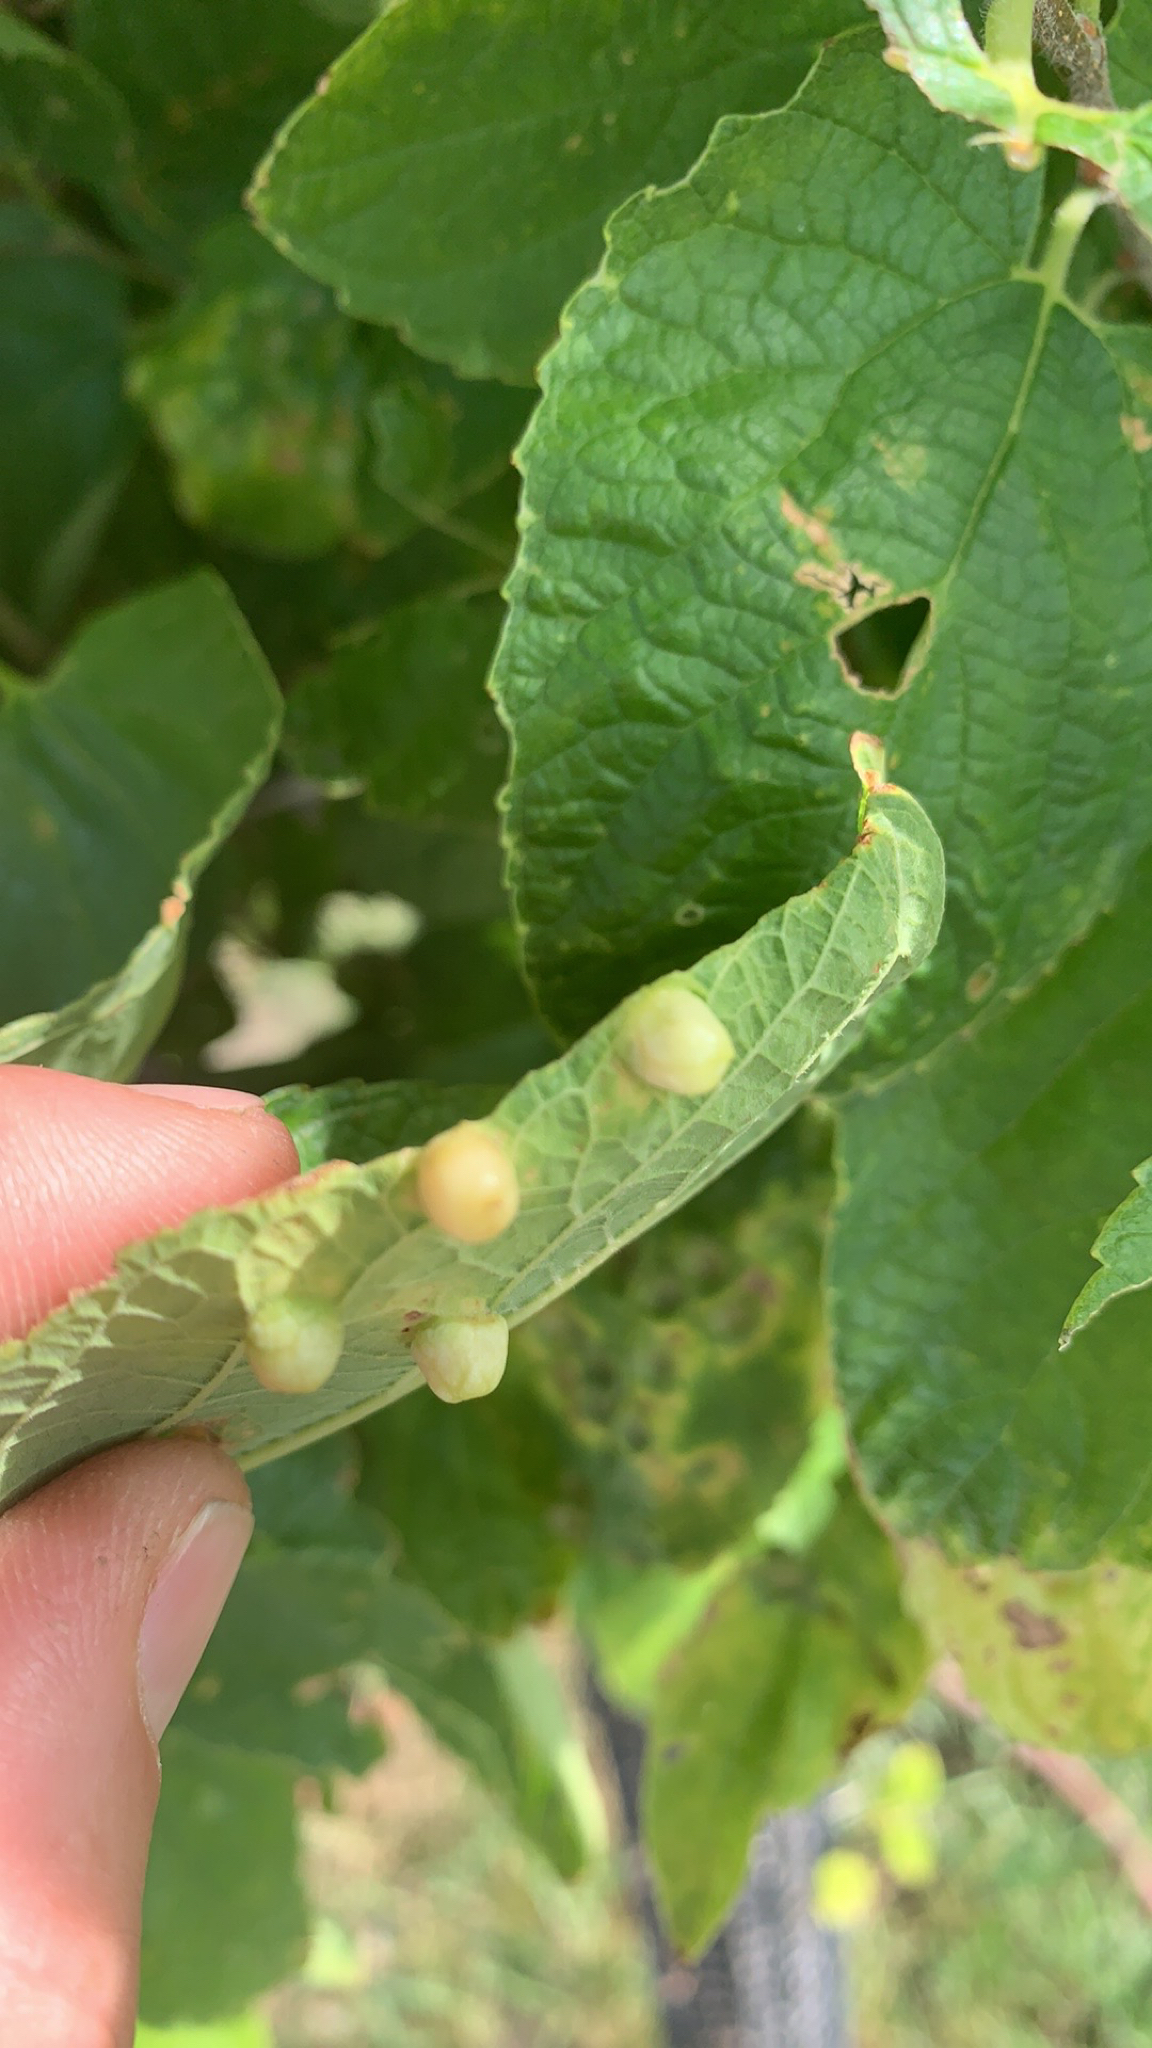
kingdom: Animalia
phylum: Arthropoda
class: Insecta
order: Hemiptera
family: Aphalaridae
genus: Pachypsylla
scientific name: Pachypsylla celtidismamma
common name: Hackberry nipplegall psyllid
